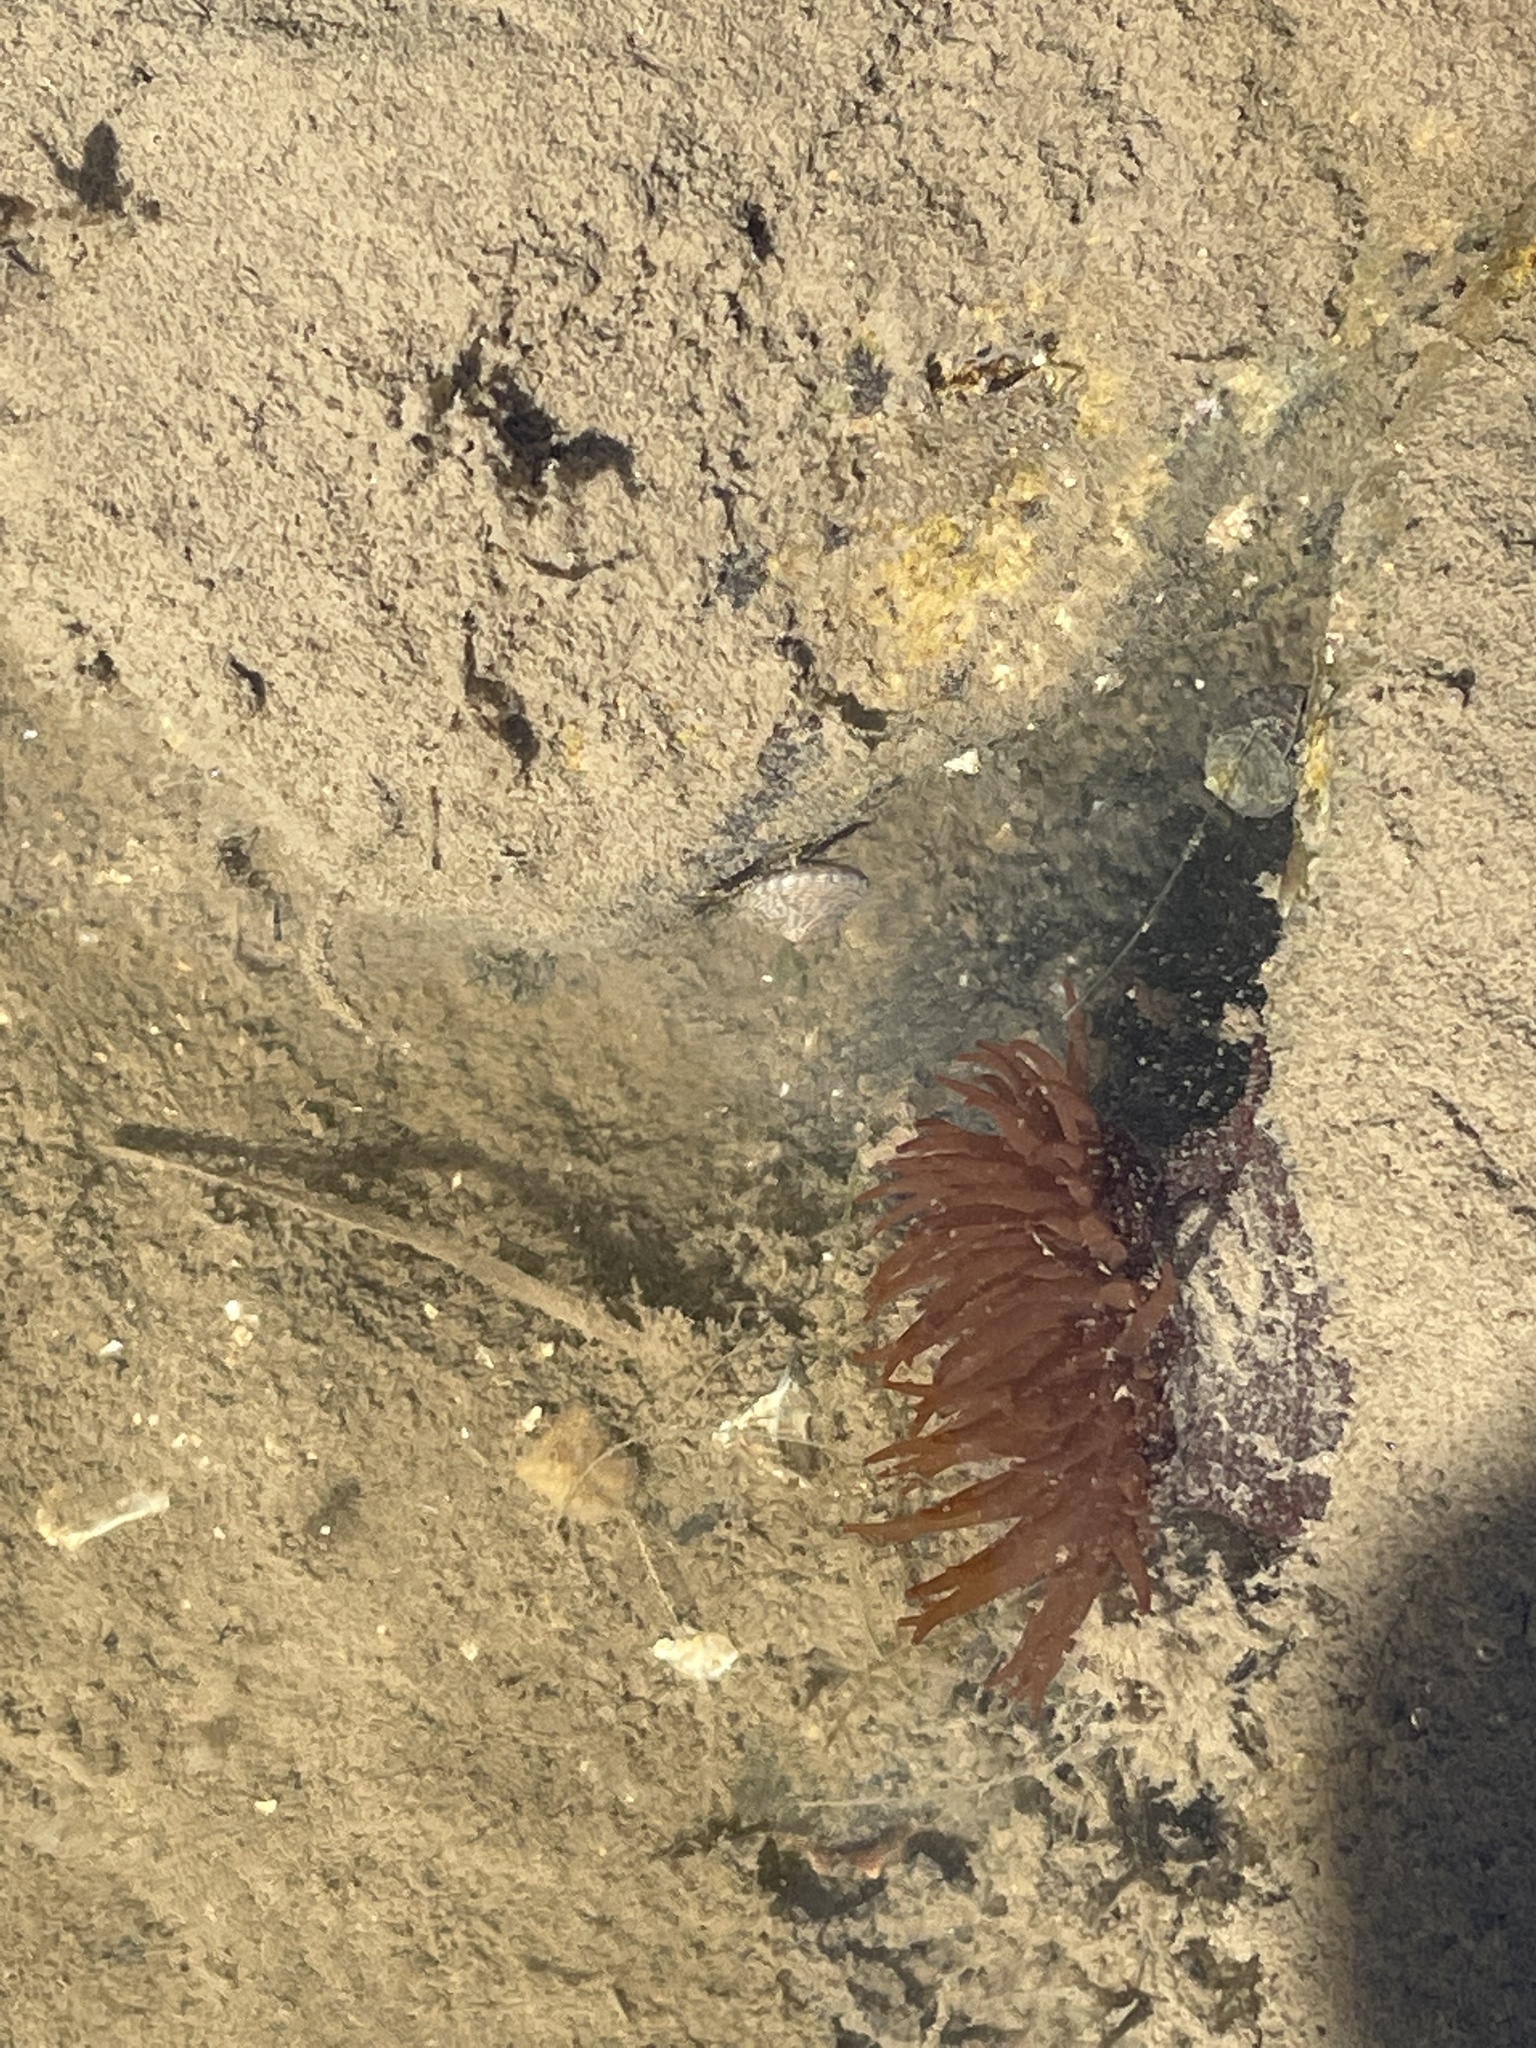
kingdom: Animalia
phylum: Cnidaria
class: Anthozoa
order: Actiniaria
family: Actiniidae
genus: Actinia
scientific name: Actinia equina
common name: Beadlet anemone
